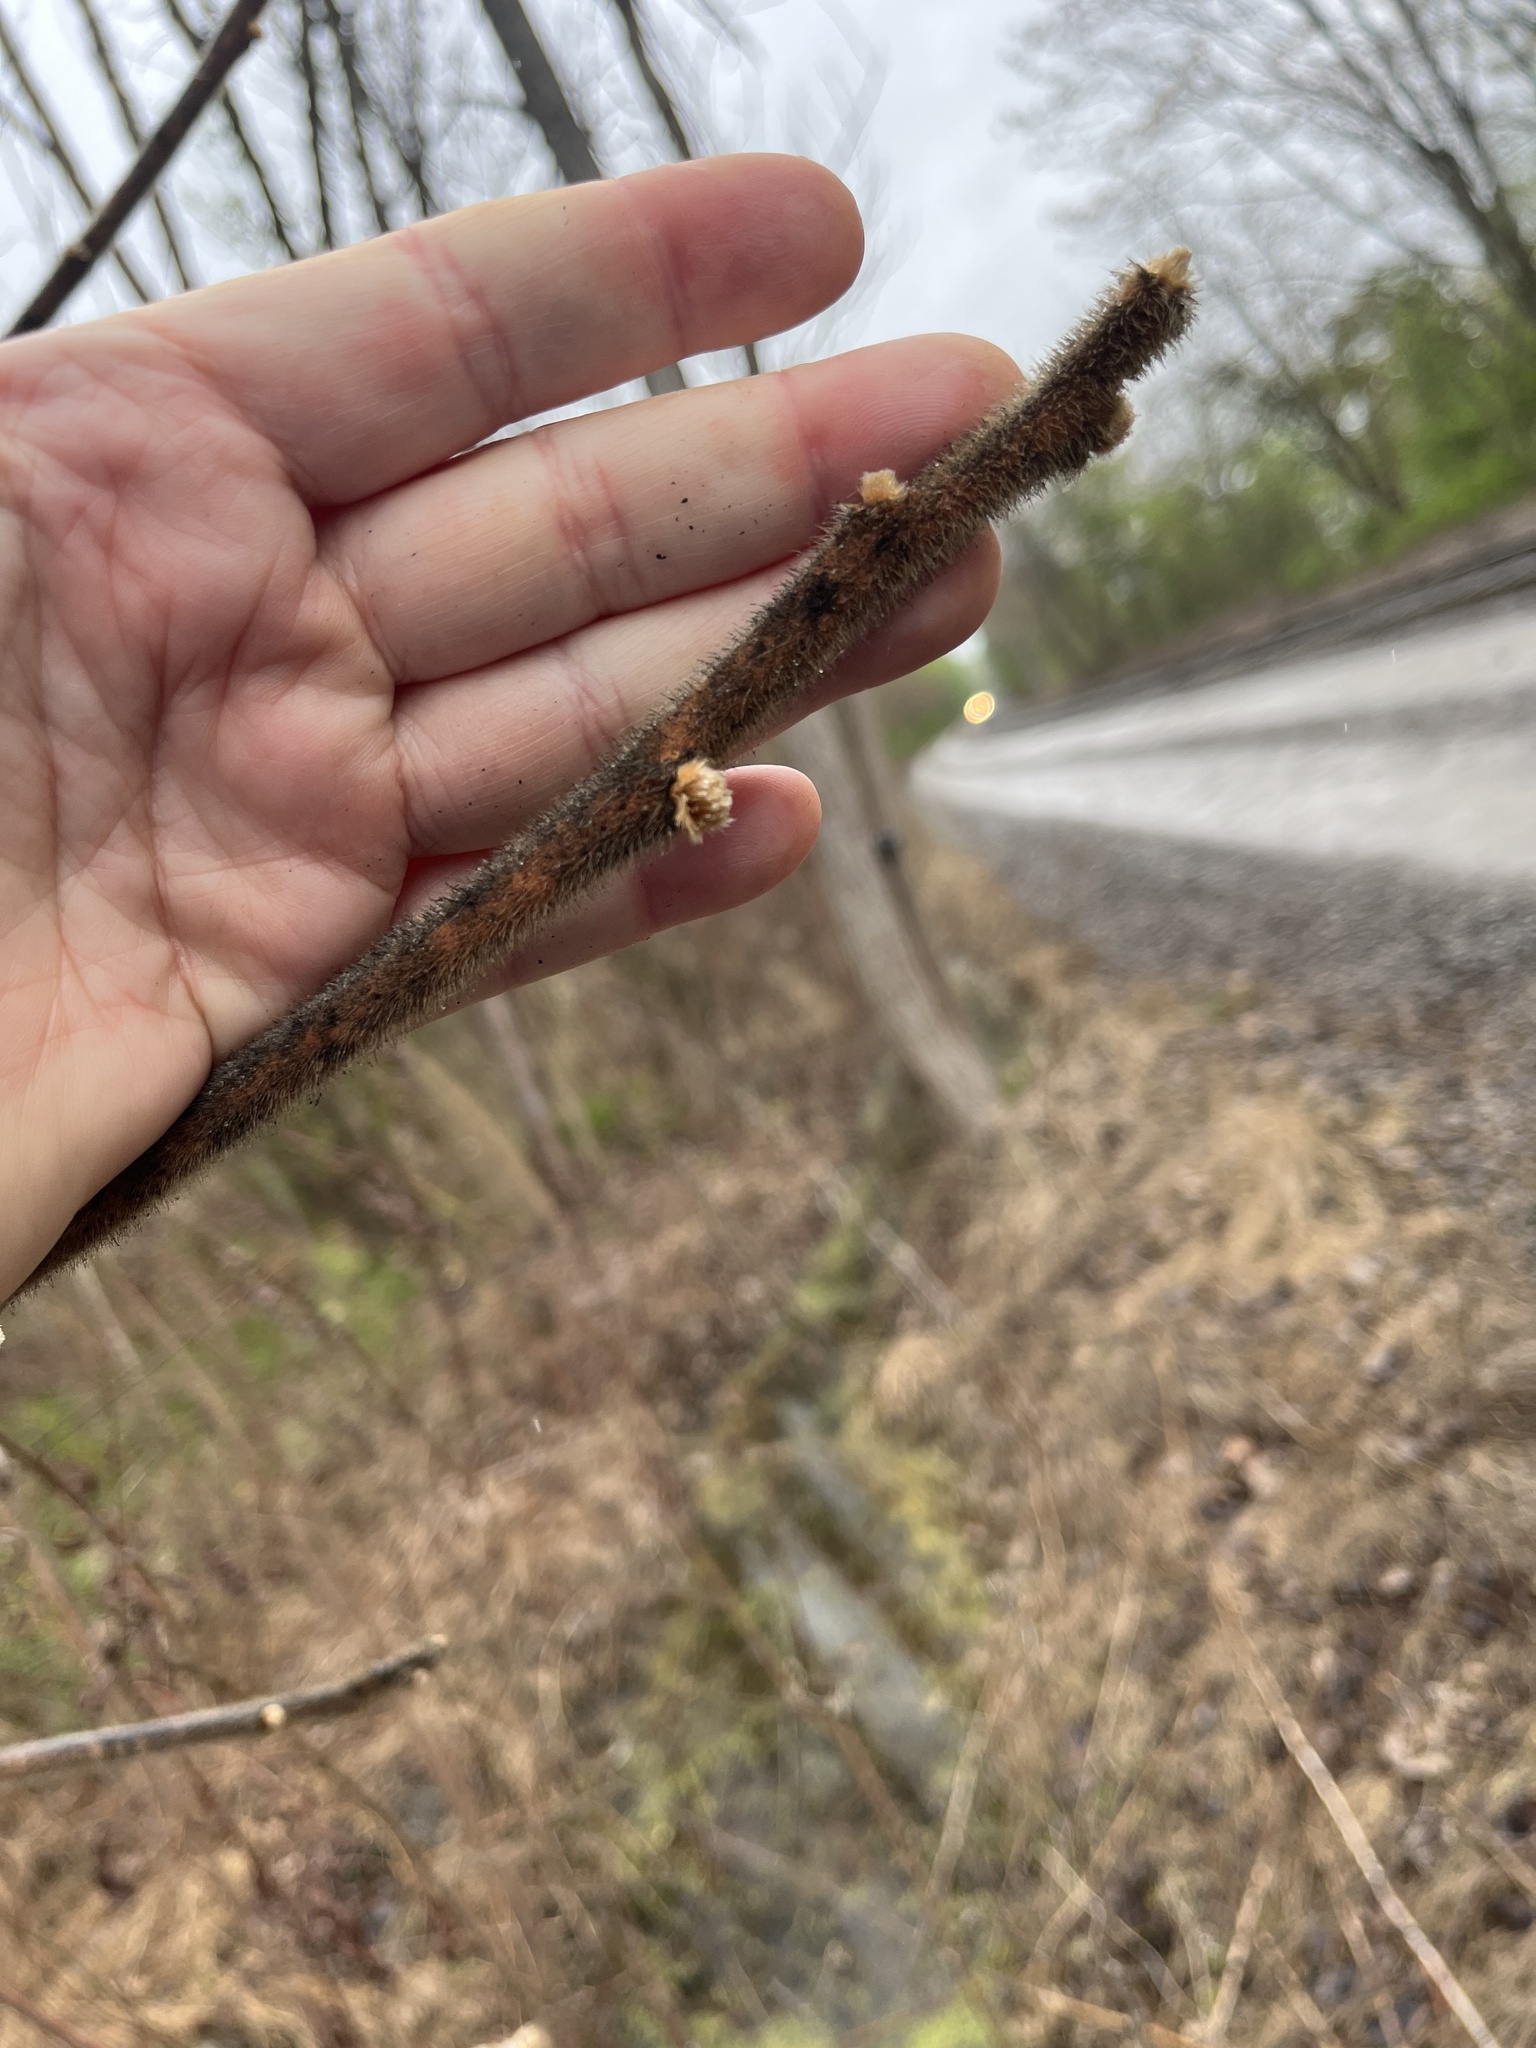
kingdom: Plantae
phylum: Tracheophyta
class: Magnoliopsida
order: Sapindales
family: Anacardiaceae
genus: Rhus
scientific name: Rhus typhina
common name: Staghorn sumac
